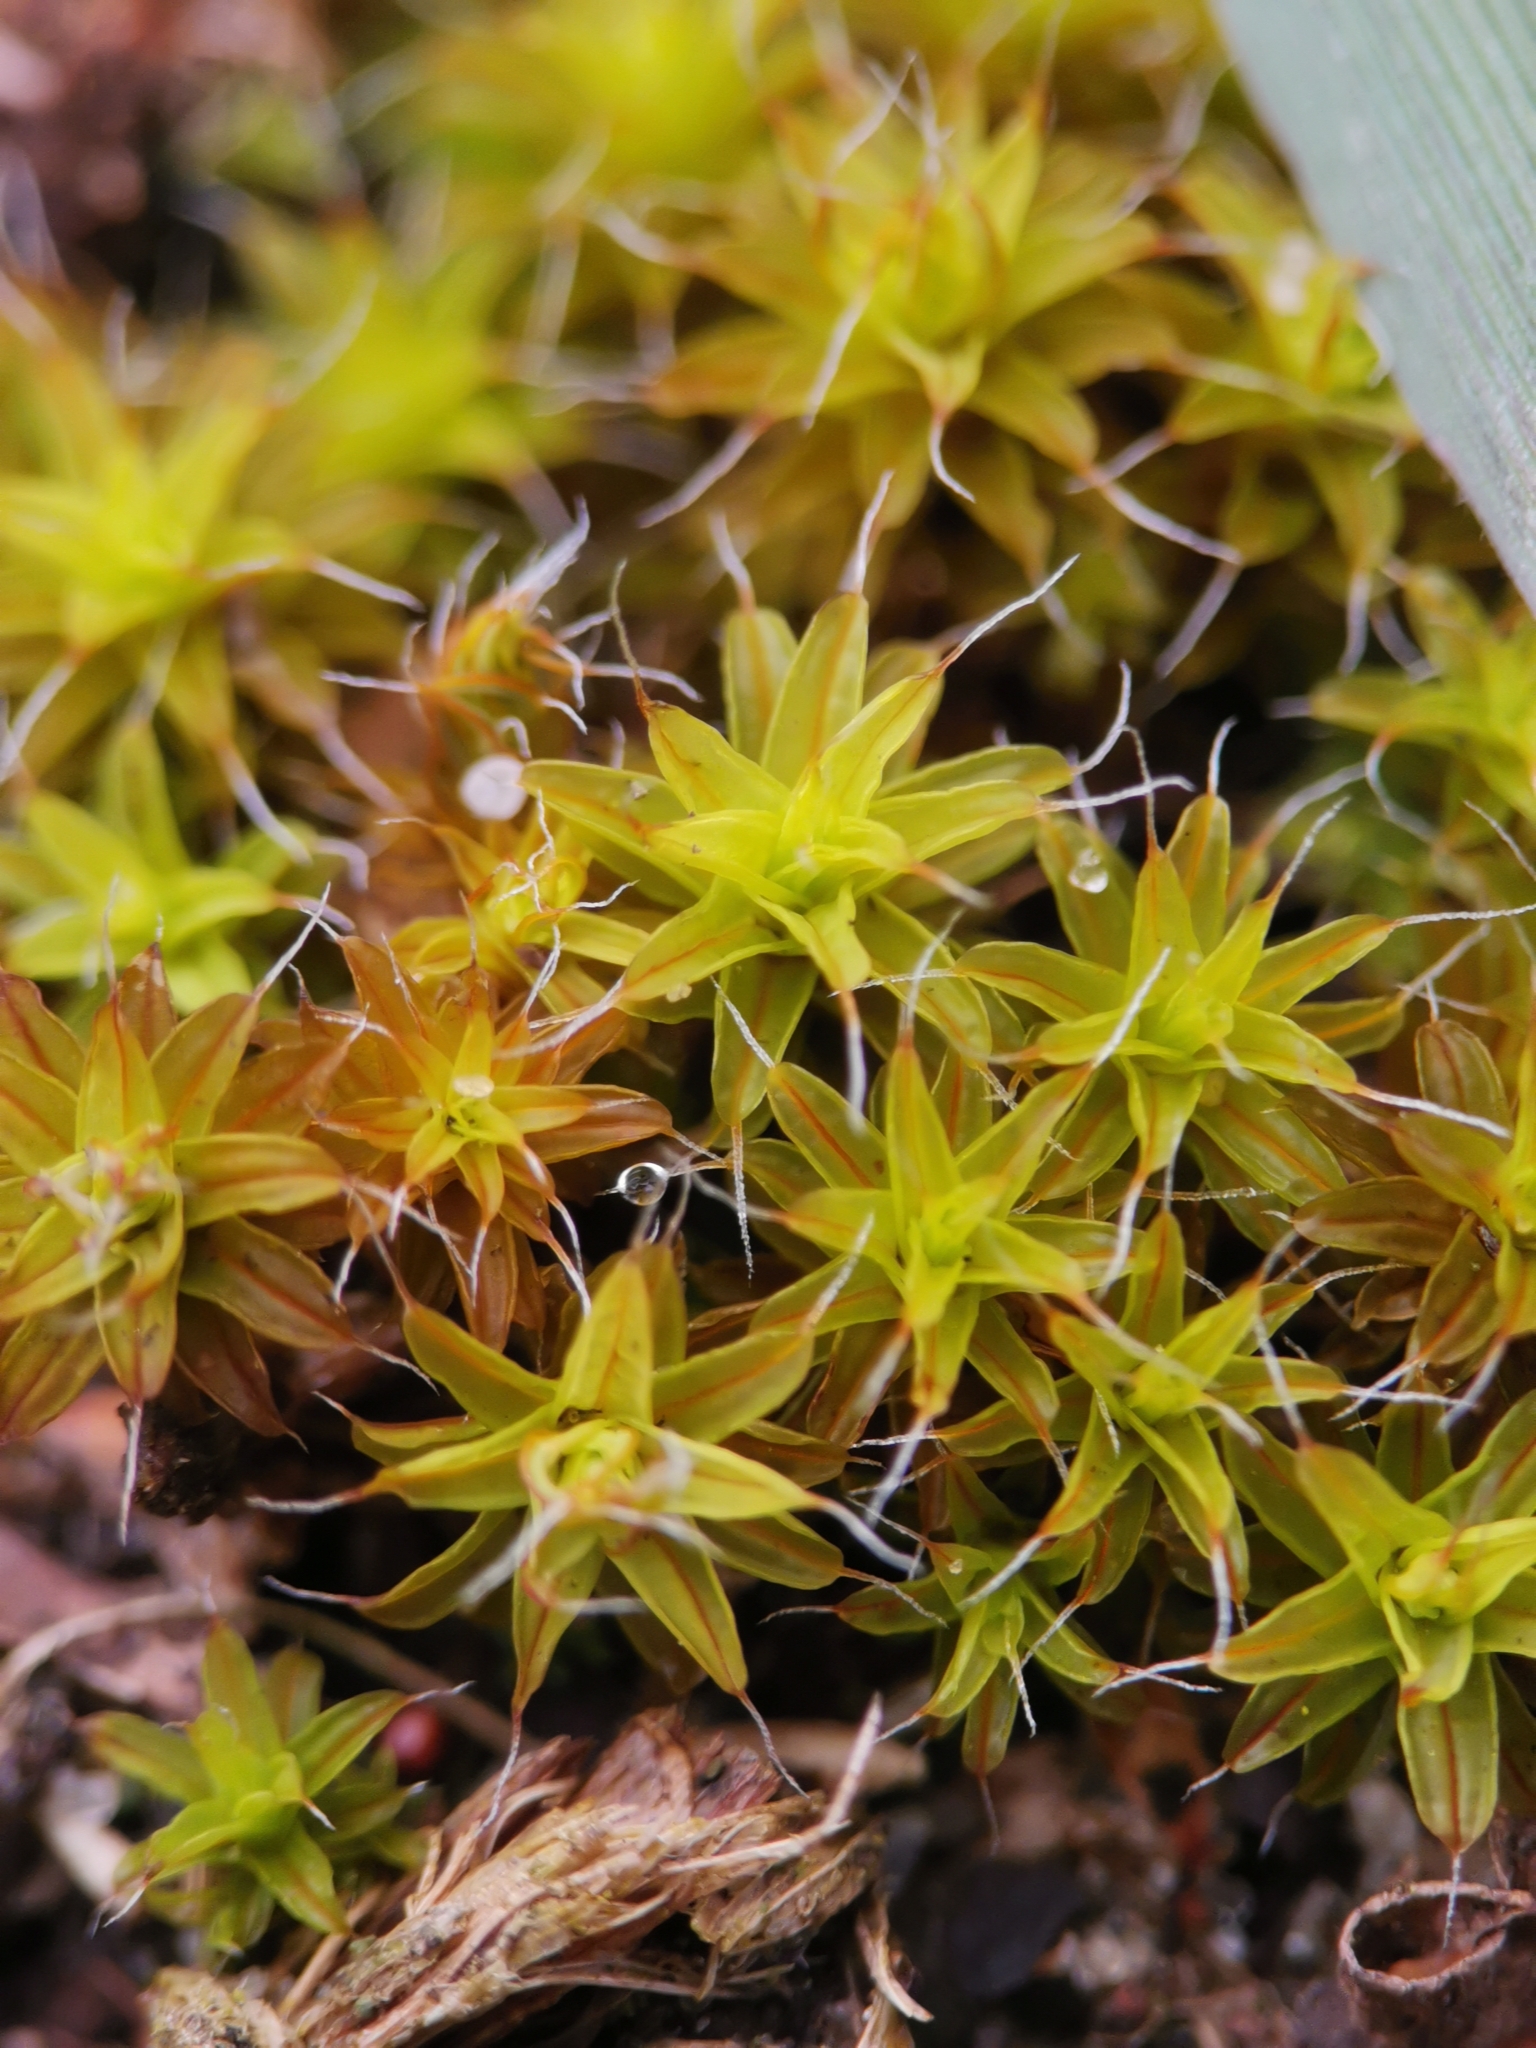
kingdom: Plantae
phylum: Bryophyta
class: Bryopsida
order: Pottiales
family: Pottiaceae
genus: Syntrichia
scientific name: Syntrichia ruralis
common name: Sidewalk screw moss
